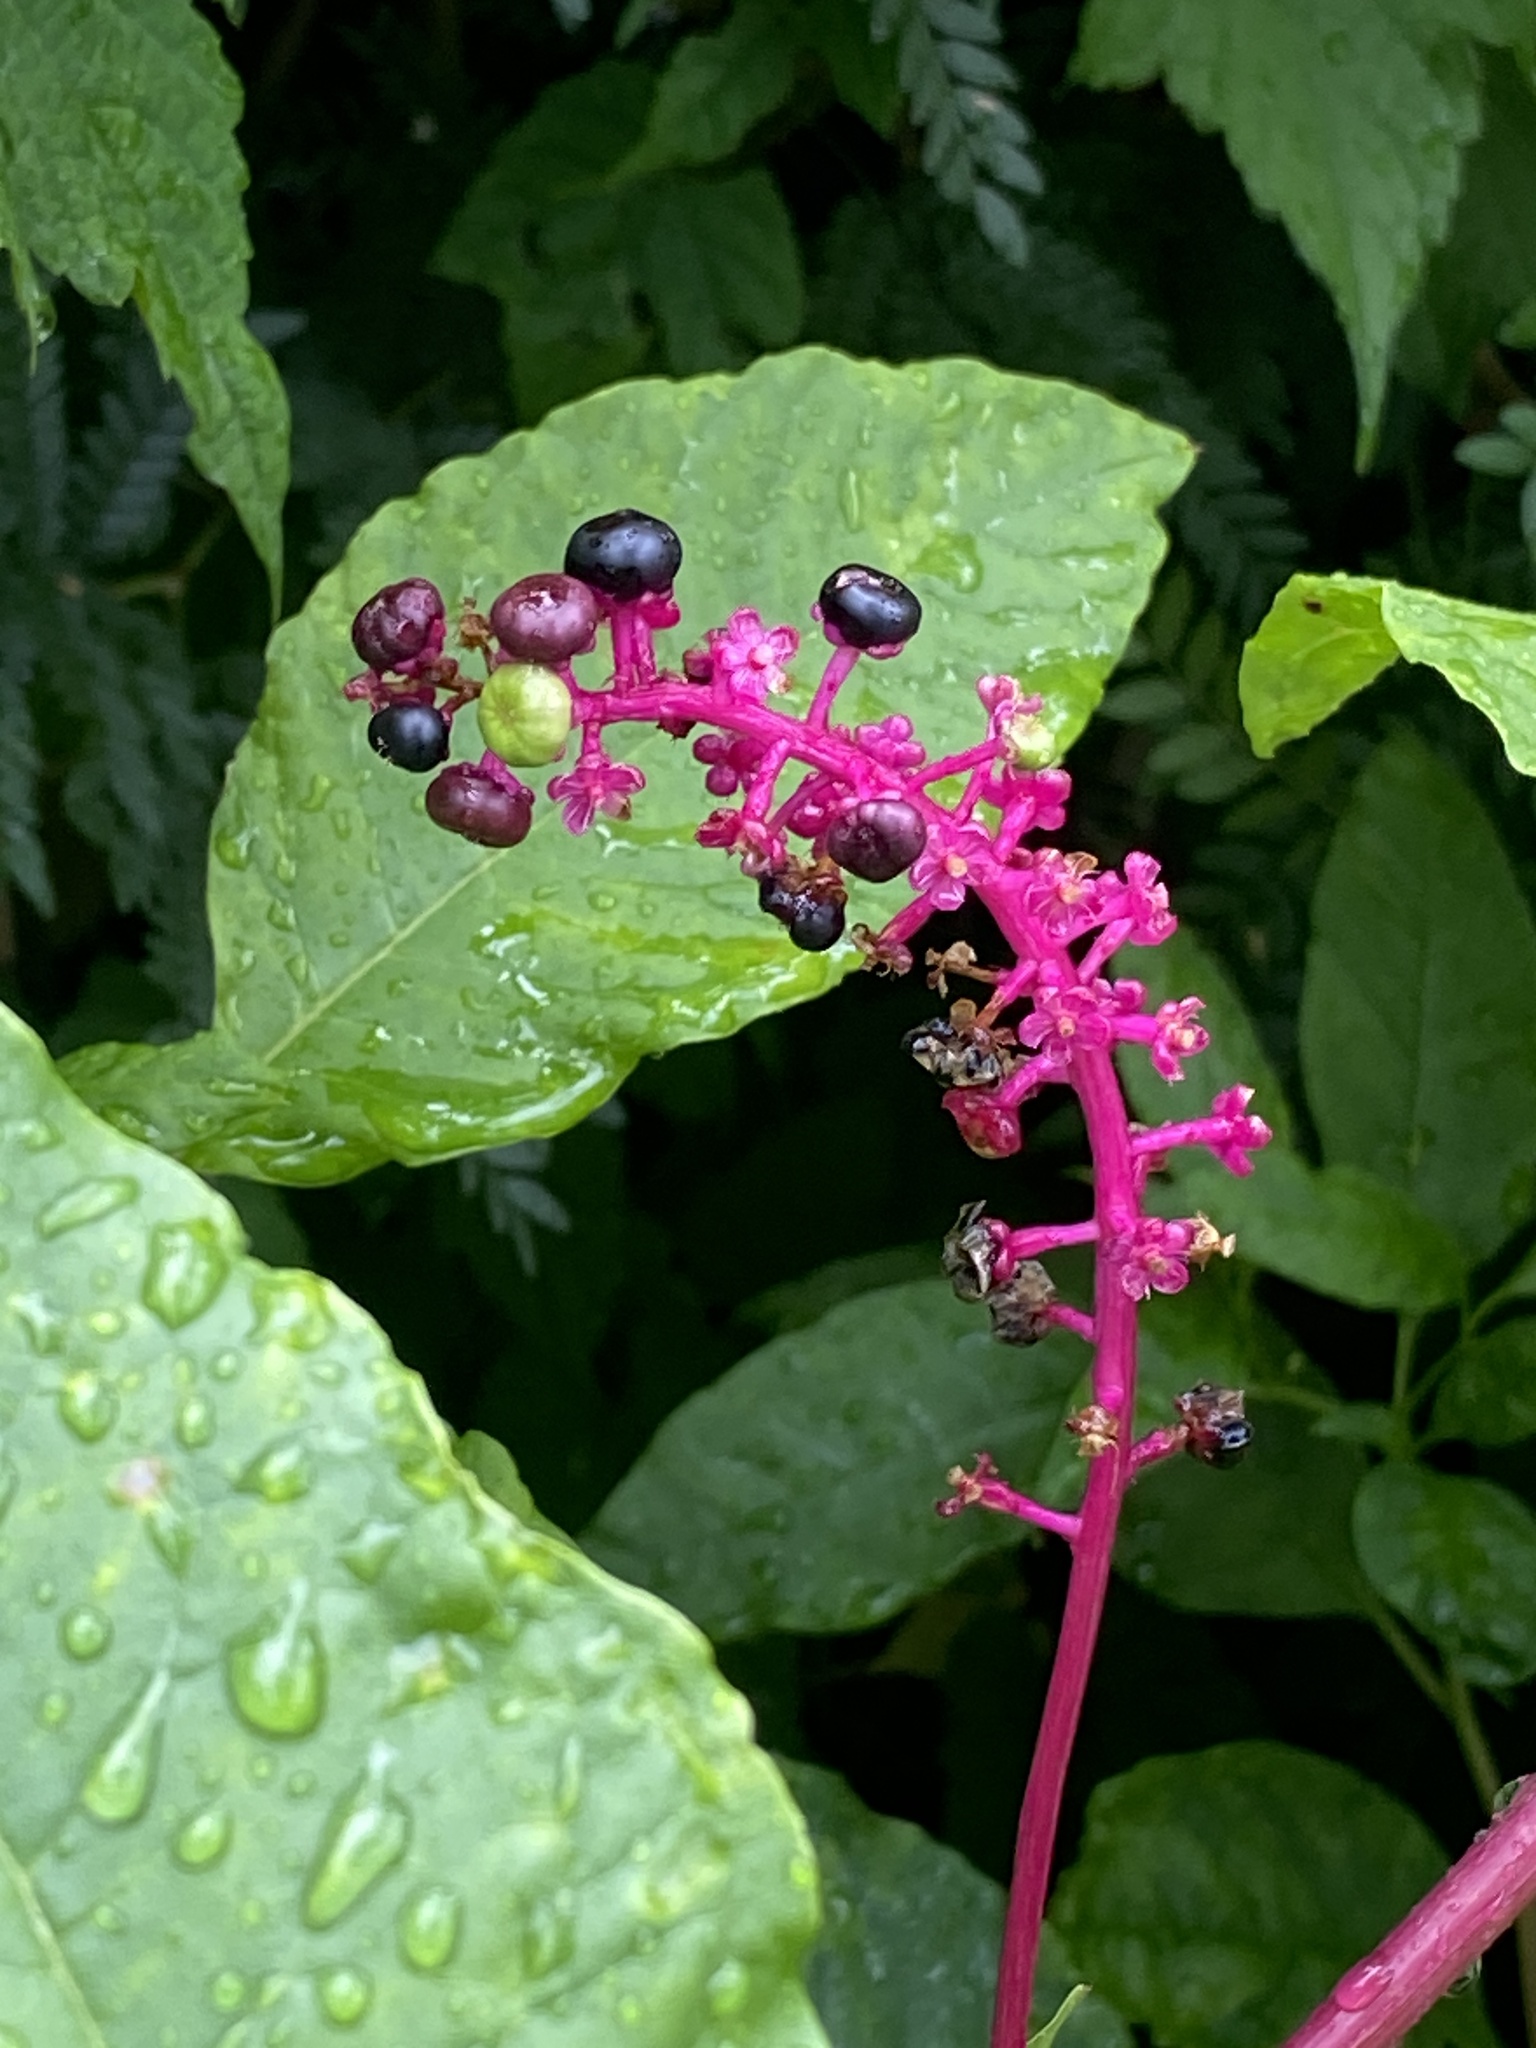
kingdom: Plantae
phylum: Tracheophyta
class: Magnoliopsida
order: Caryophyllales
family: Phytolaccaceae
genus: Phytolacca
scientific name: Phytolacca americana
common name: American pokeweed
